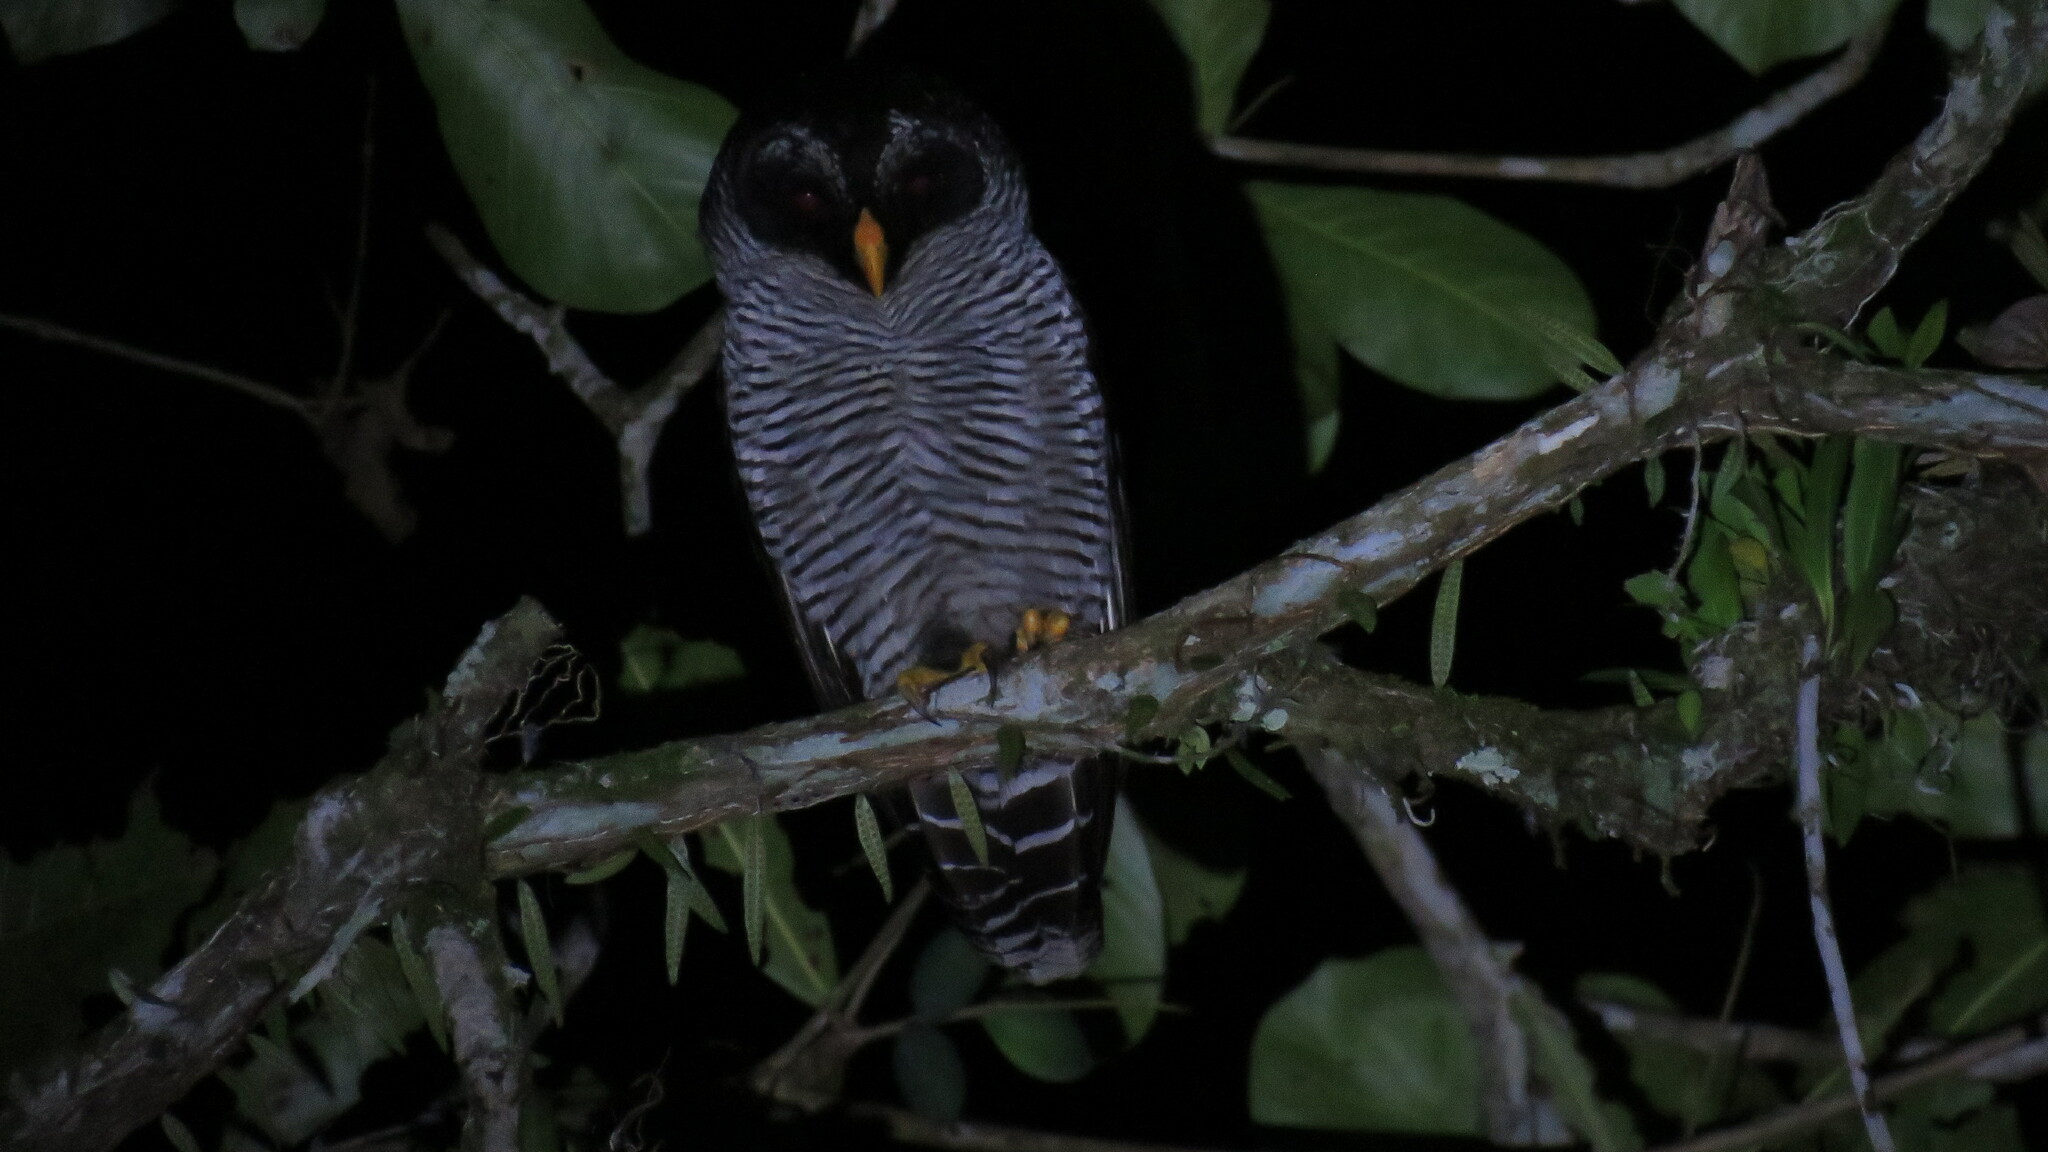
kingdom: Animalia
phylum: Chordata
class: Aves
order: Strigiformes
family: Strigidae
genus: Strix
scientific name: Strix nigrolineata
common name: Black-and-white owl
